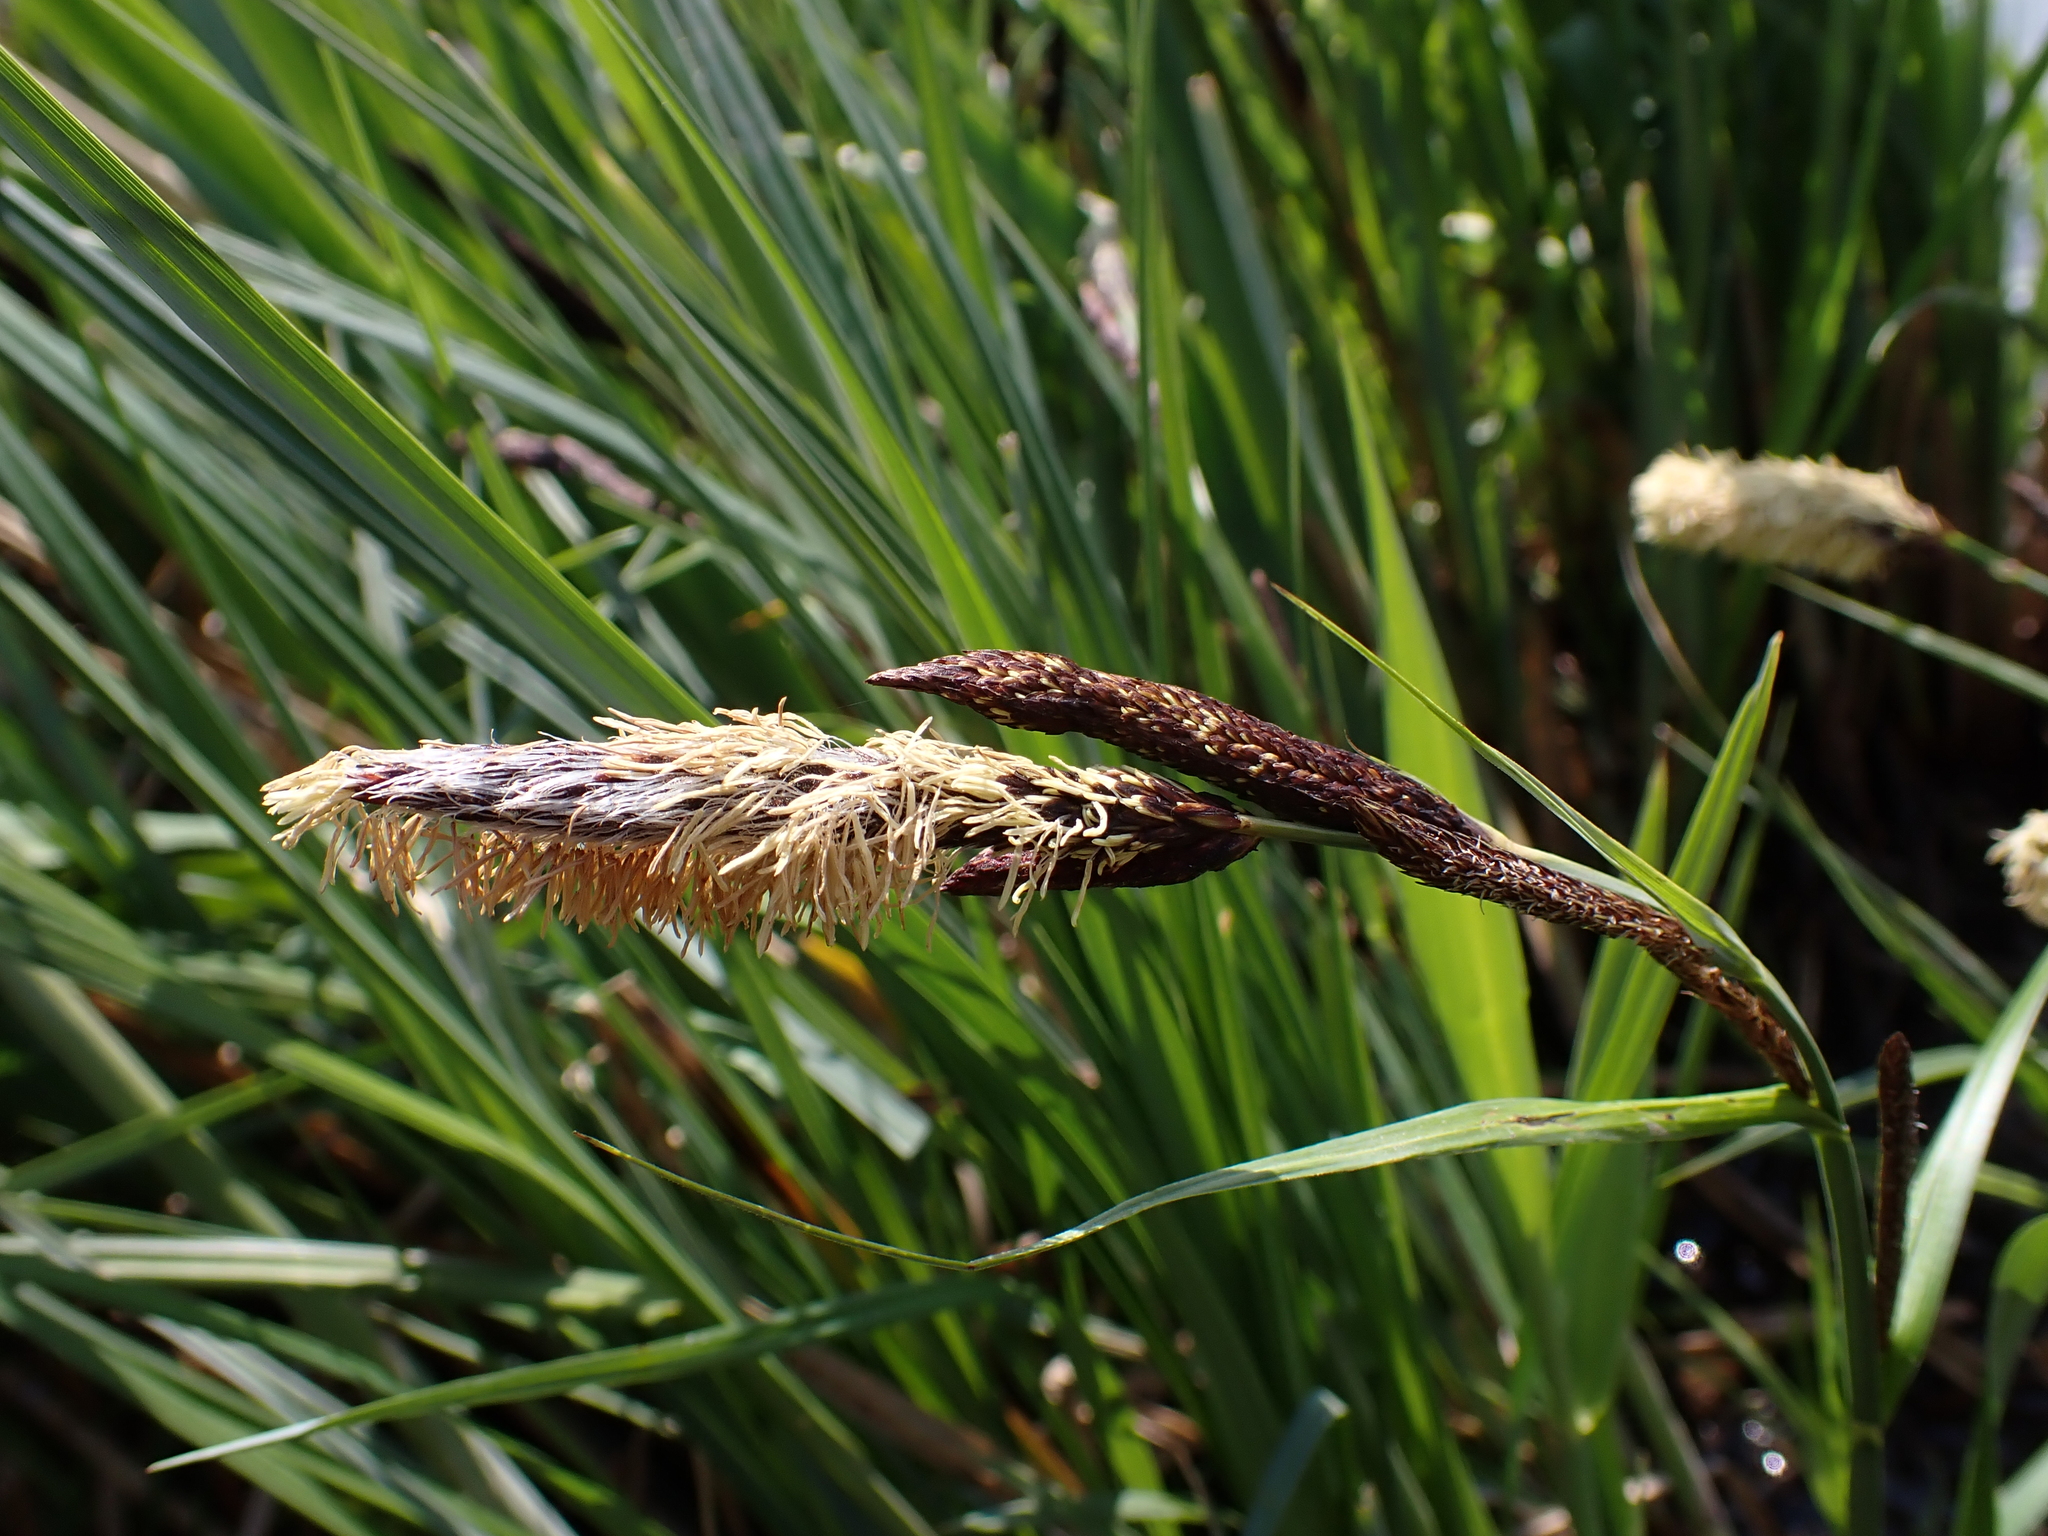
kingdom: Plantae
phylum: Tracheophyta
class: Liliopsida
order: Poales
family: Cyperaceae
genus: Carex
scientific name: Carex buekii
